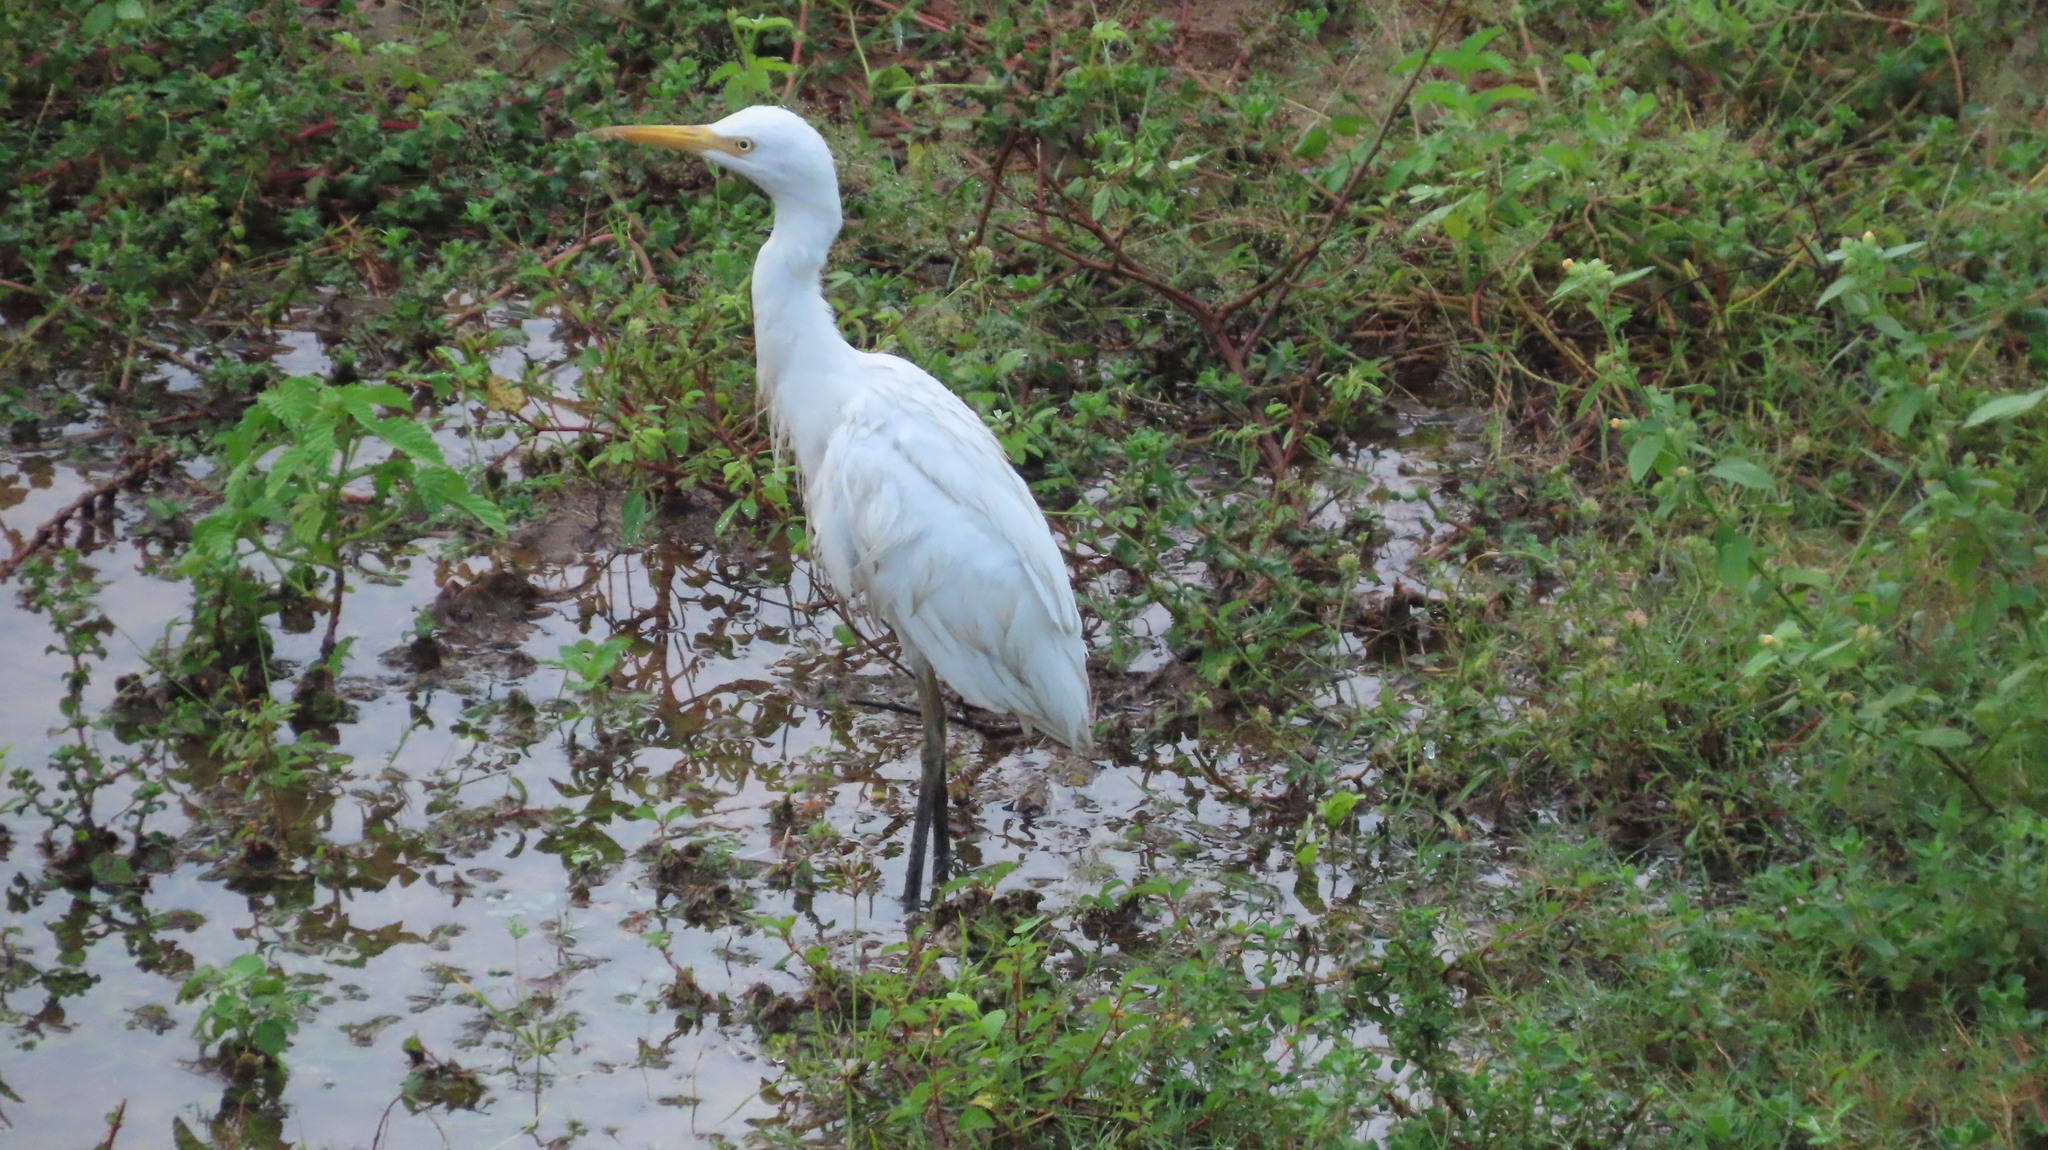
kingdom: Animalia
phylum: Chordata
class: Aves
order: Pelecaniformes
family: Ardeidae
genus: Bubulcus
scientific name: Bubulcus coromandus
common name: Eastern cattle egret
